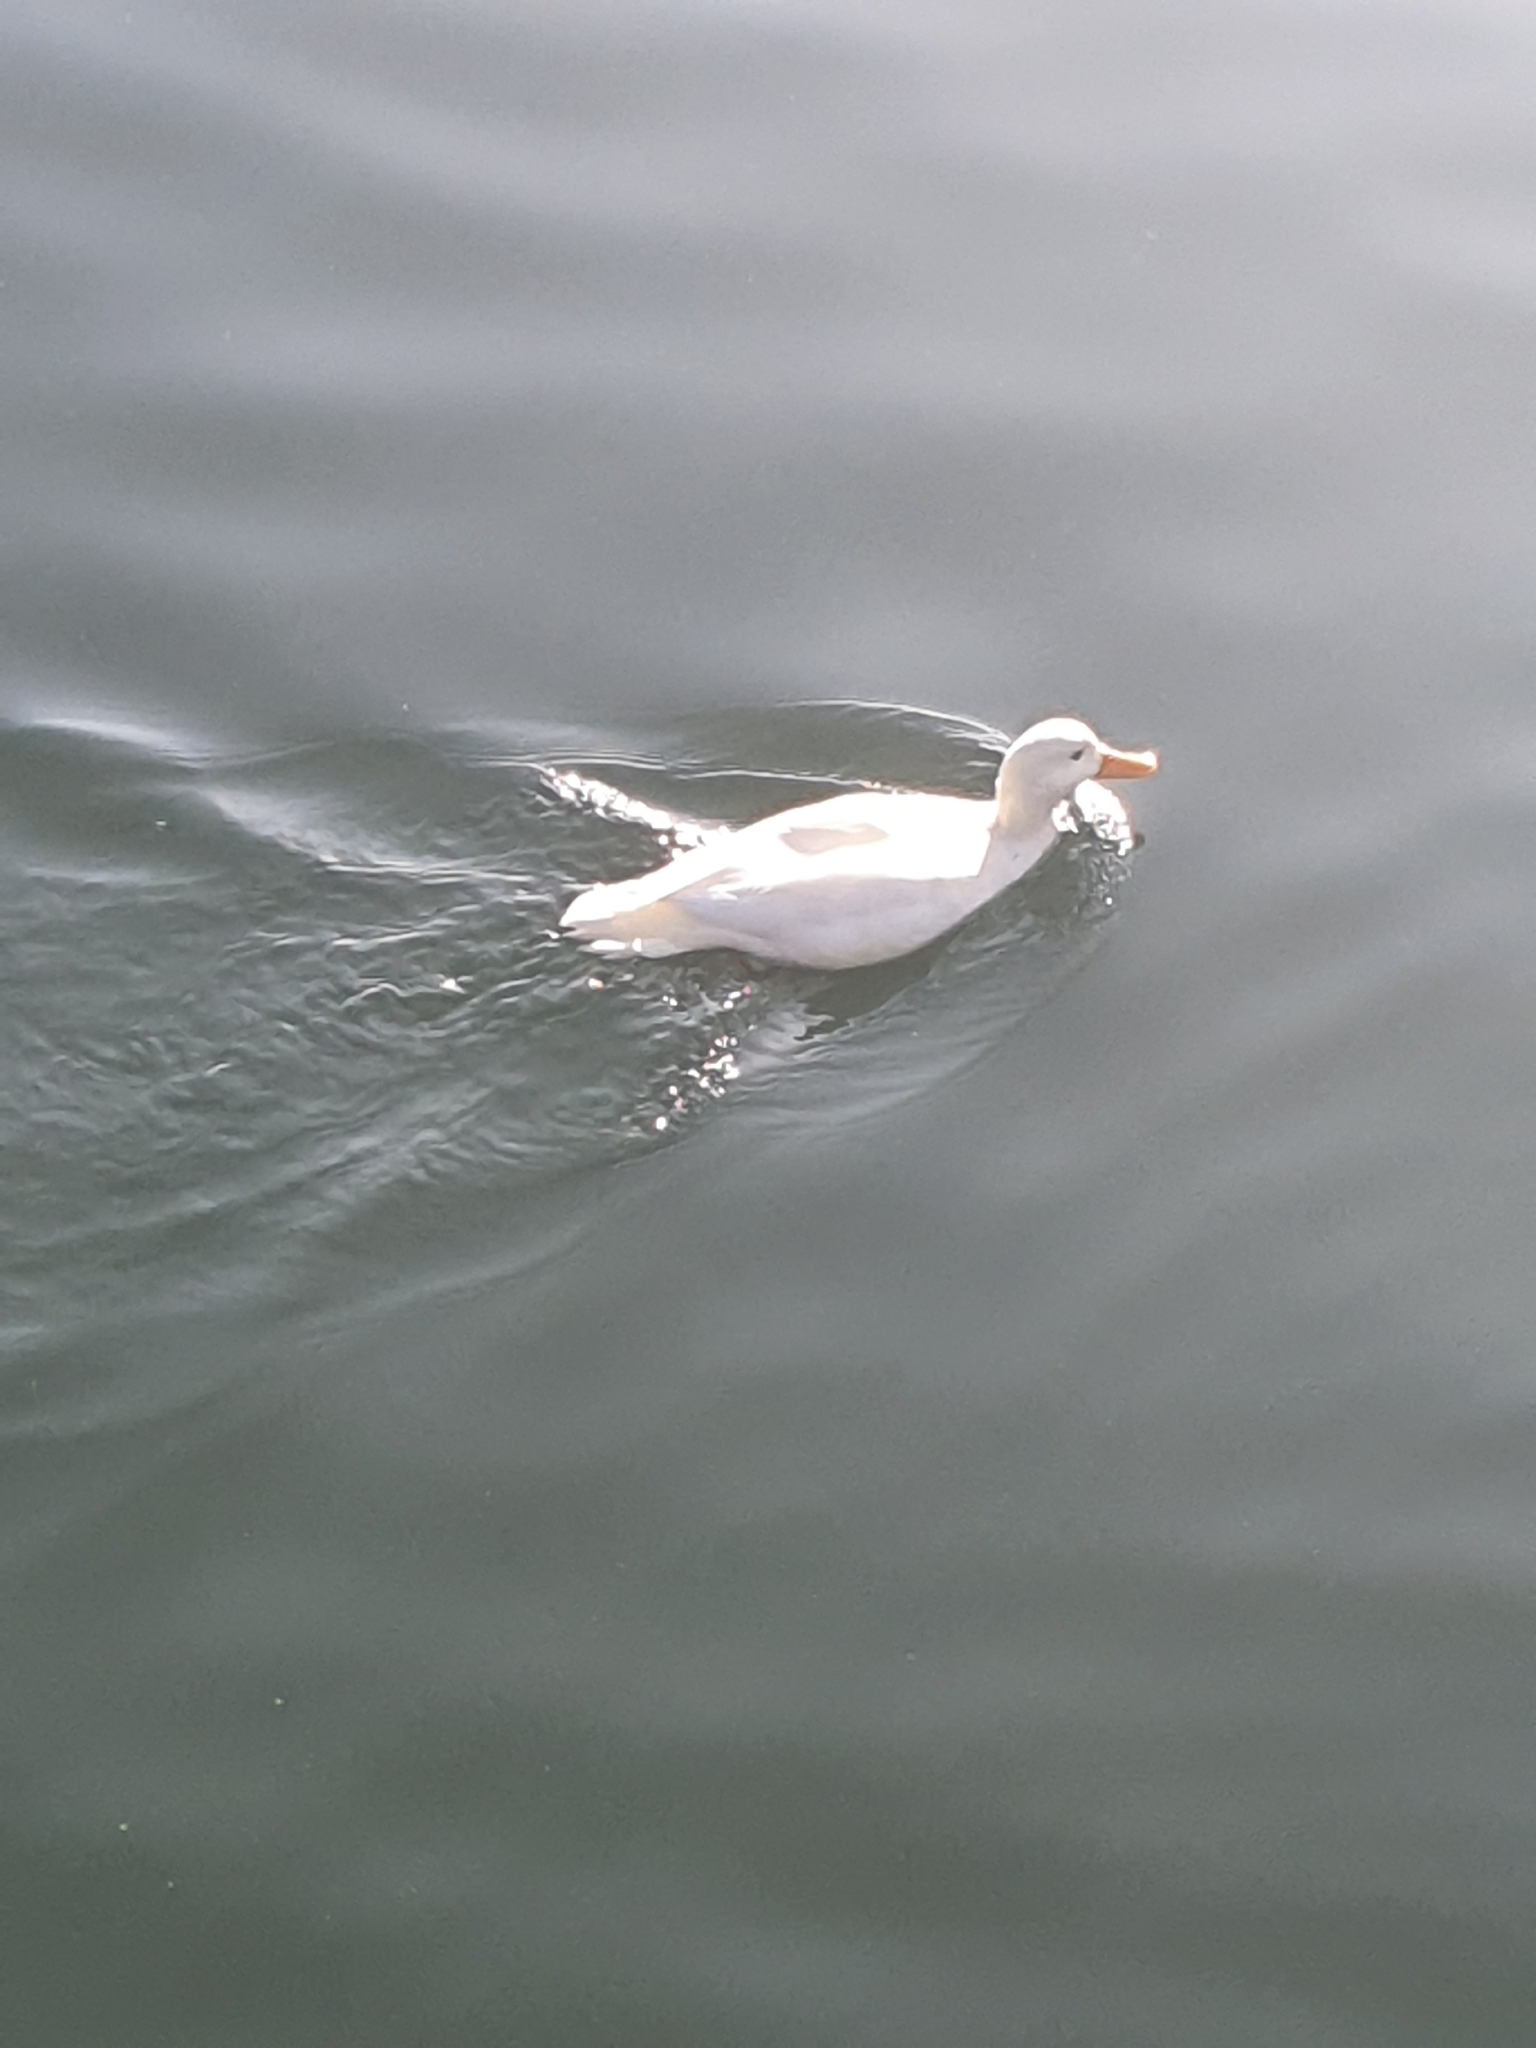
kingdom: Animalia
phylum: Chordata
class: Aves
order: Anseriformes
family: Anatidae
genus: Anas
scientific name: Anas platyrhynchos
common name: Mallard
